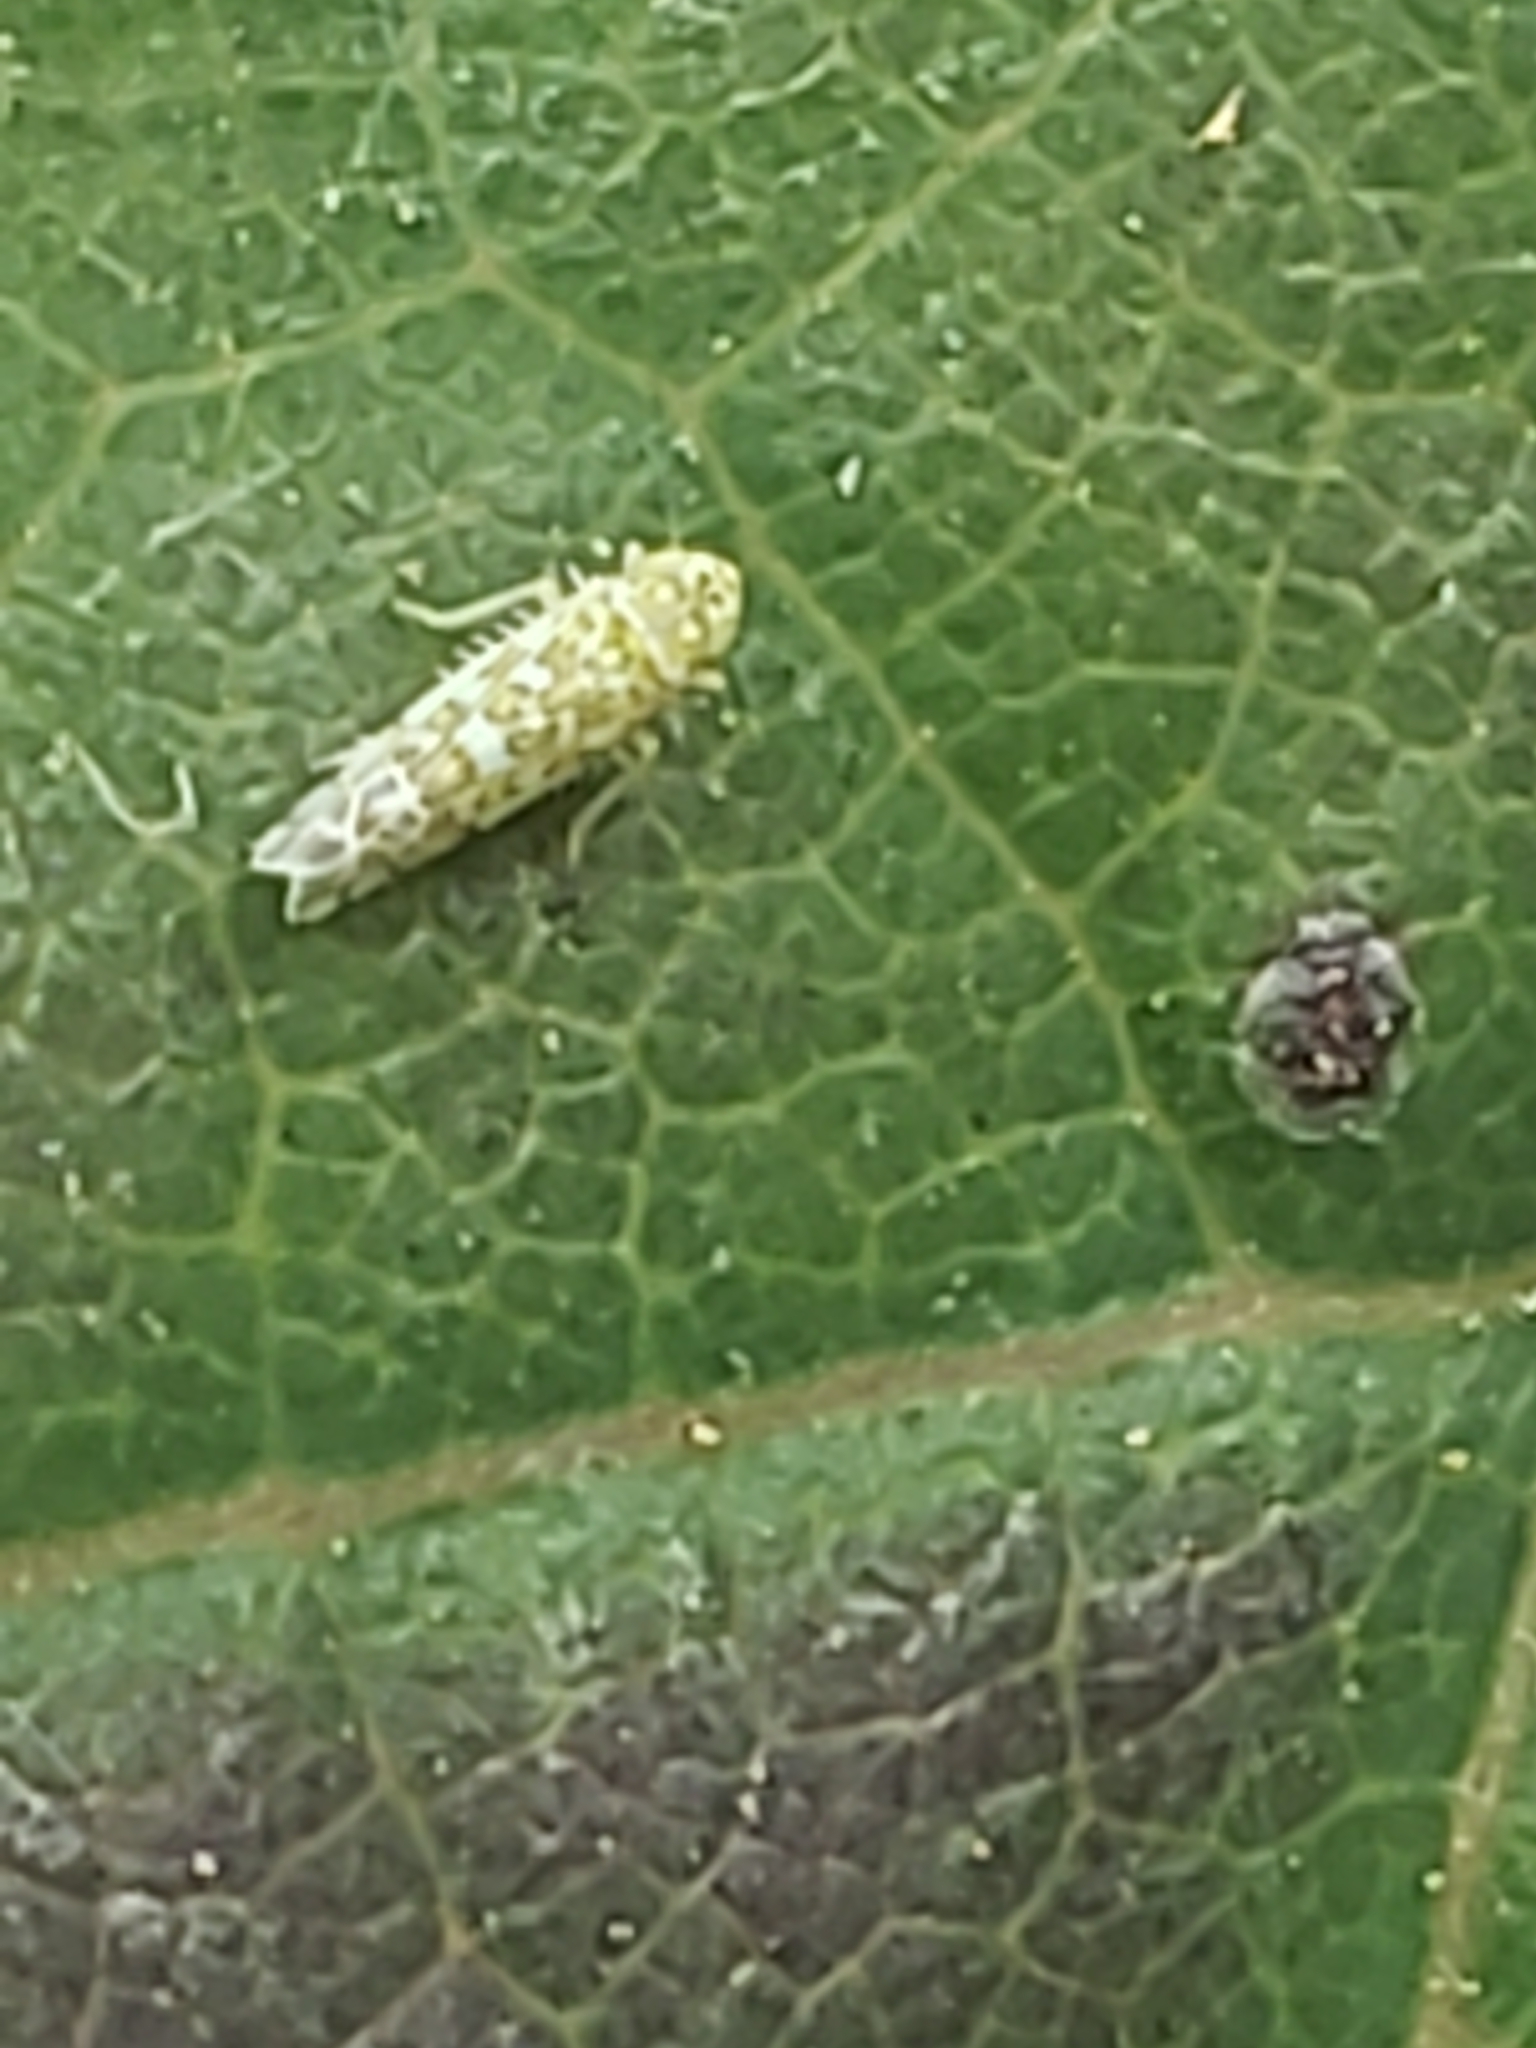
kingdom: Animalia
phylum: Arthropoda
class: Insecta
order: Hemiptera
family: Cicadellidae
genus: Eupteryx
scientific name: Eupteryx decemnotata
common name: Ligurian leafhopper
